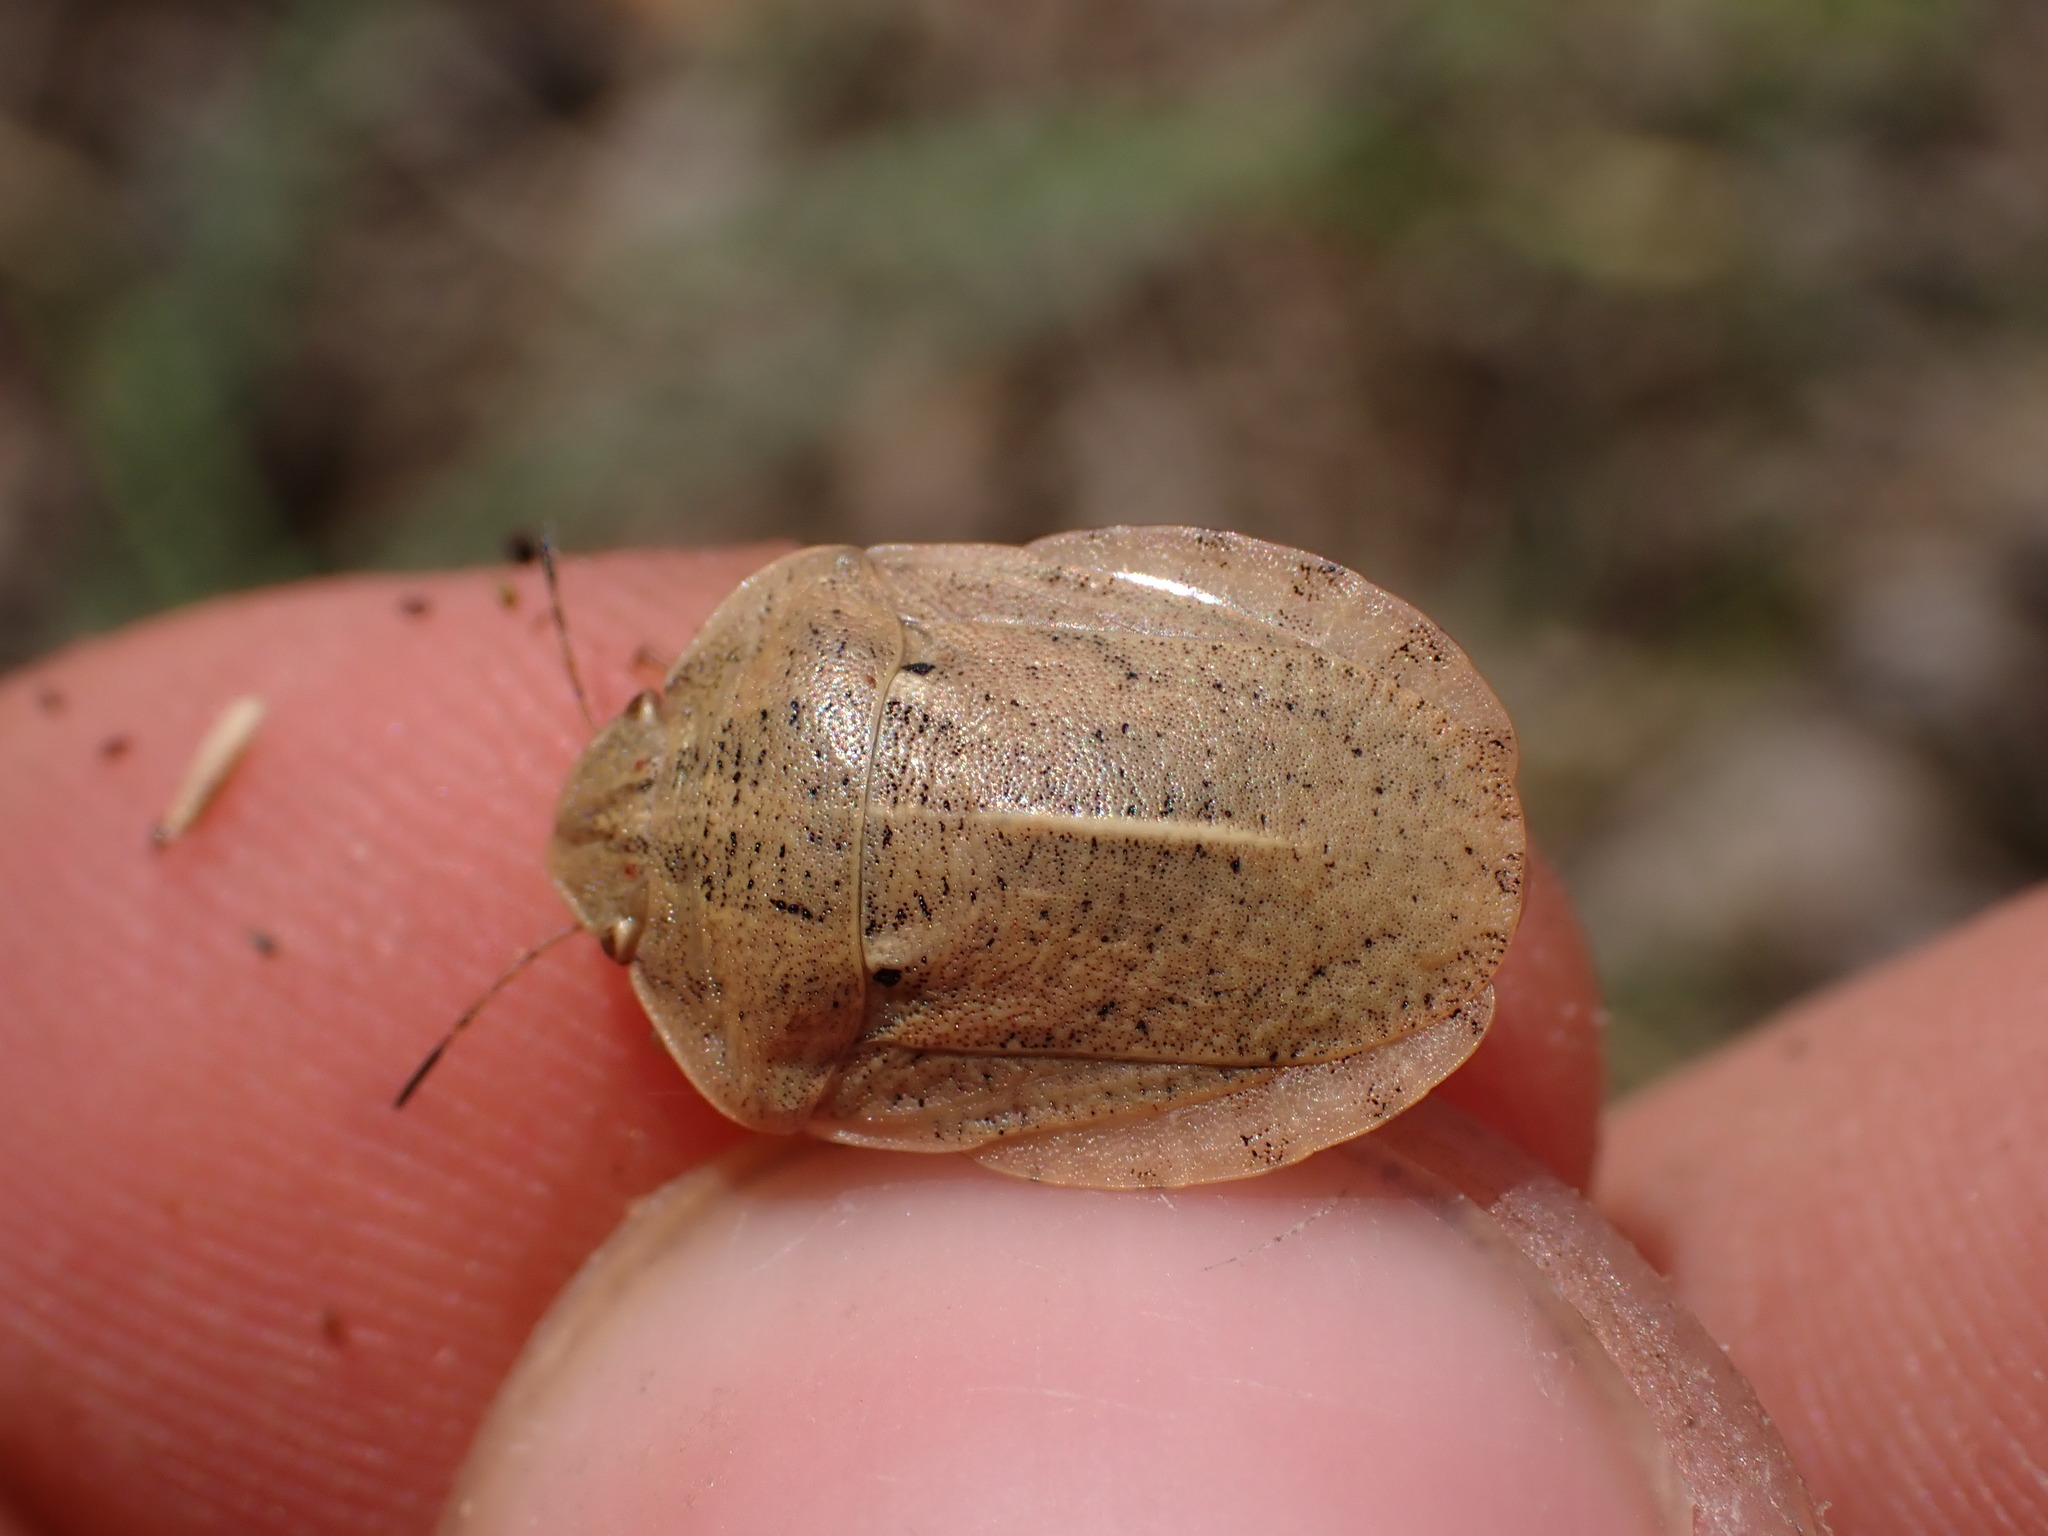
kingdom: Animalia
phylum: Arthropoda
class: Insecta
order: Hemiptera
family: Scutelleridae
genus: Eurygaster
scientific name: Eurygaster austriaca
